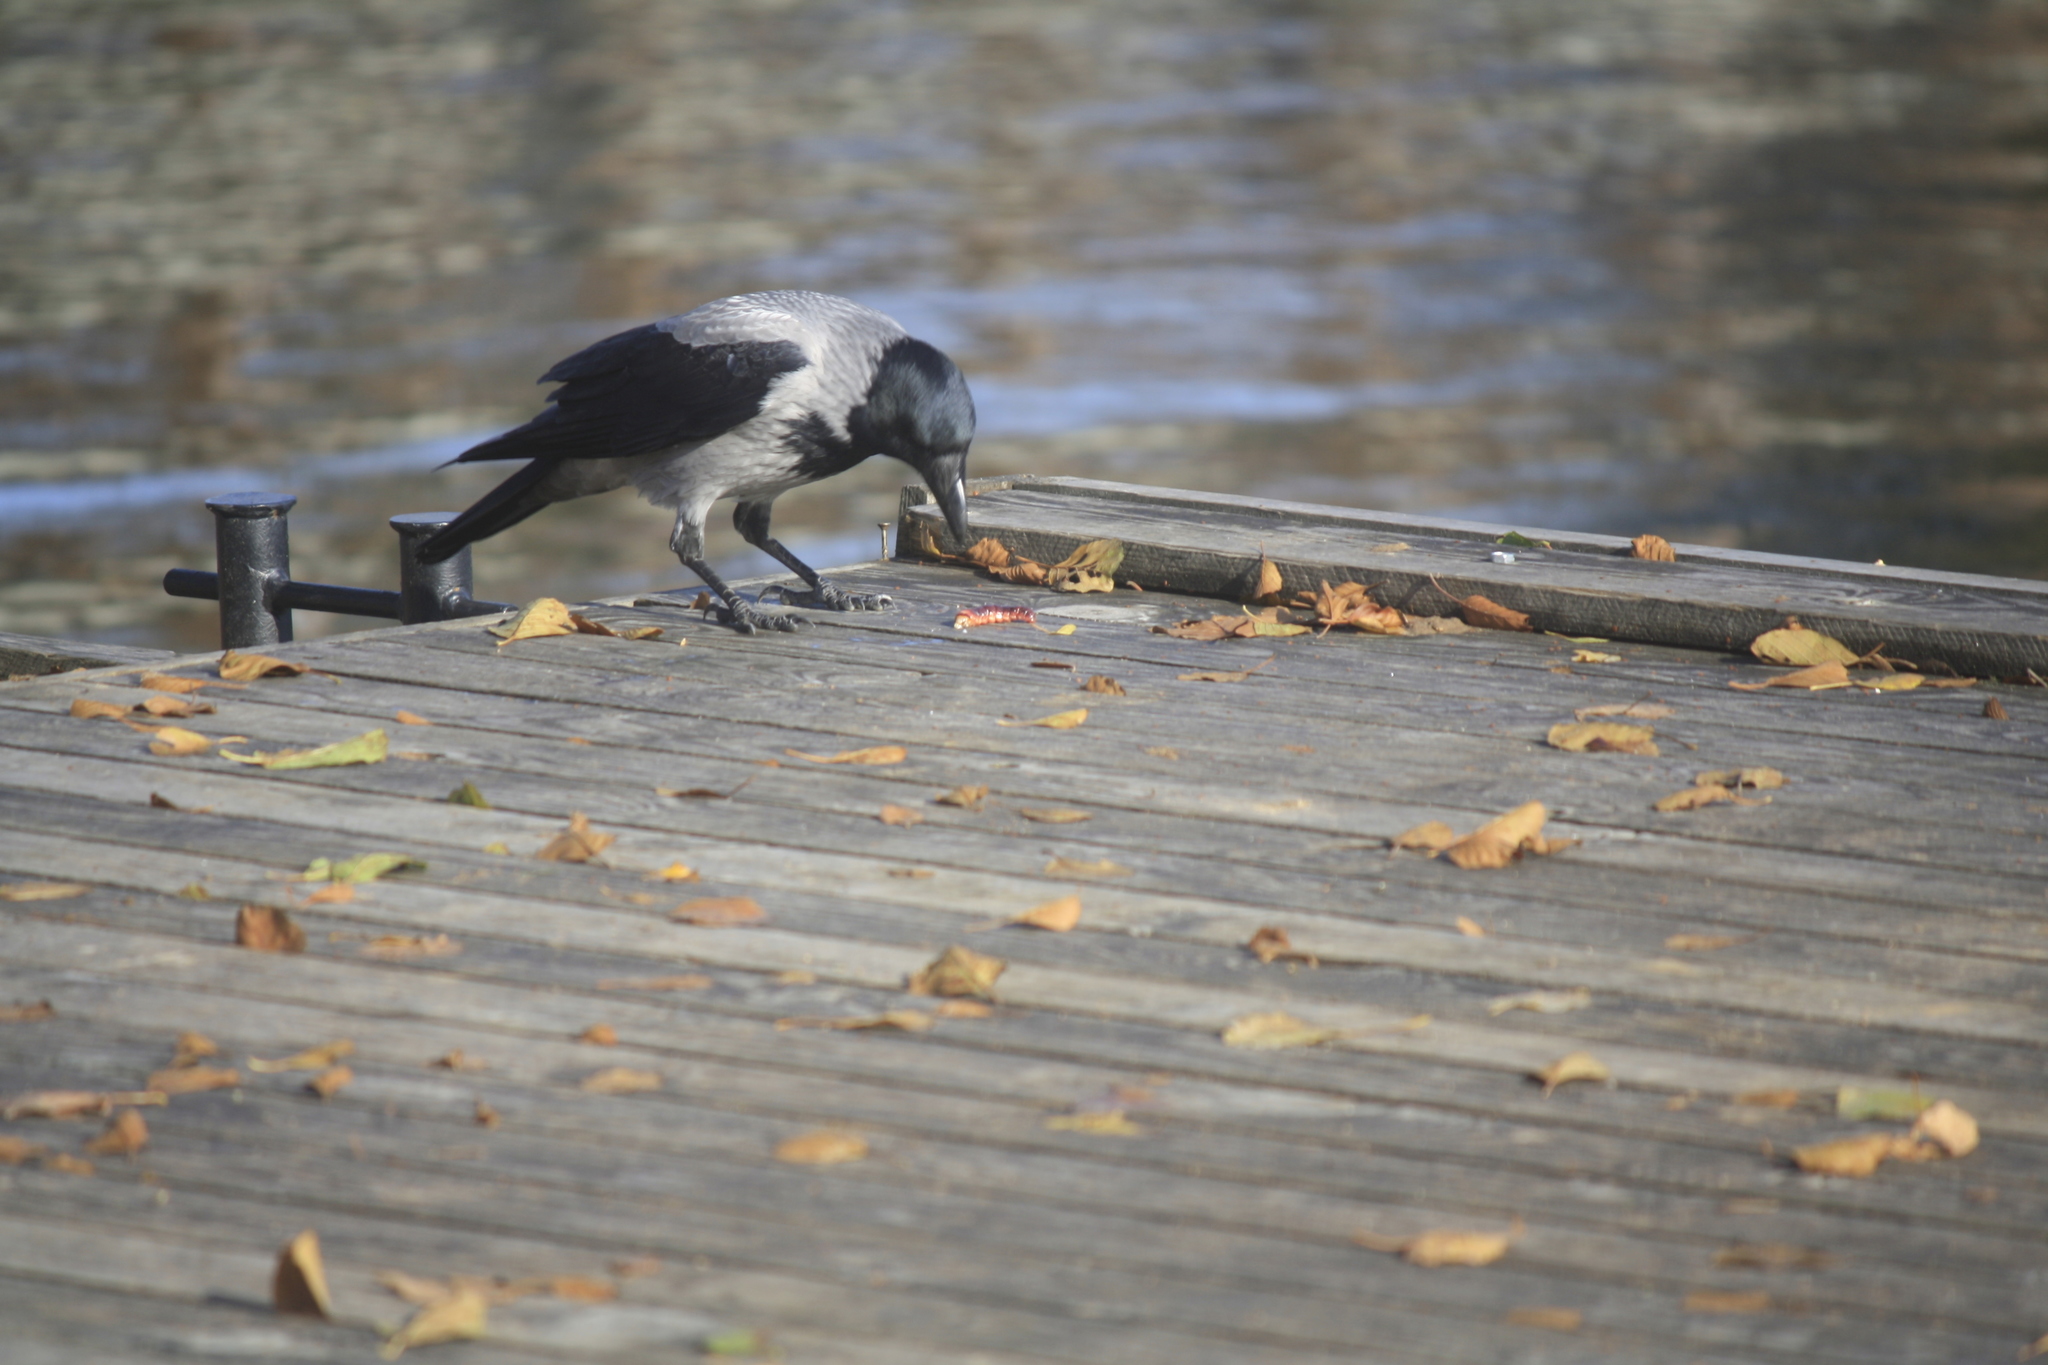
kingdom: Animalia
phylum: Chordata
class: Aves
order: Passeriformes
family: Corvidae
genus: Corvus
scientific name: Corvus cornix
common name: Hooded crow
